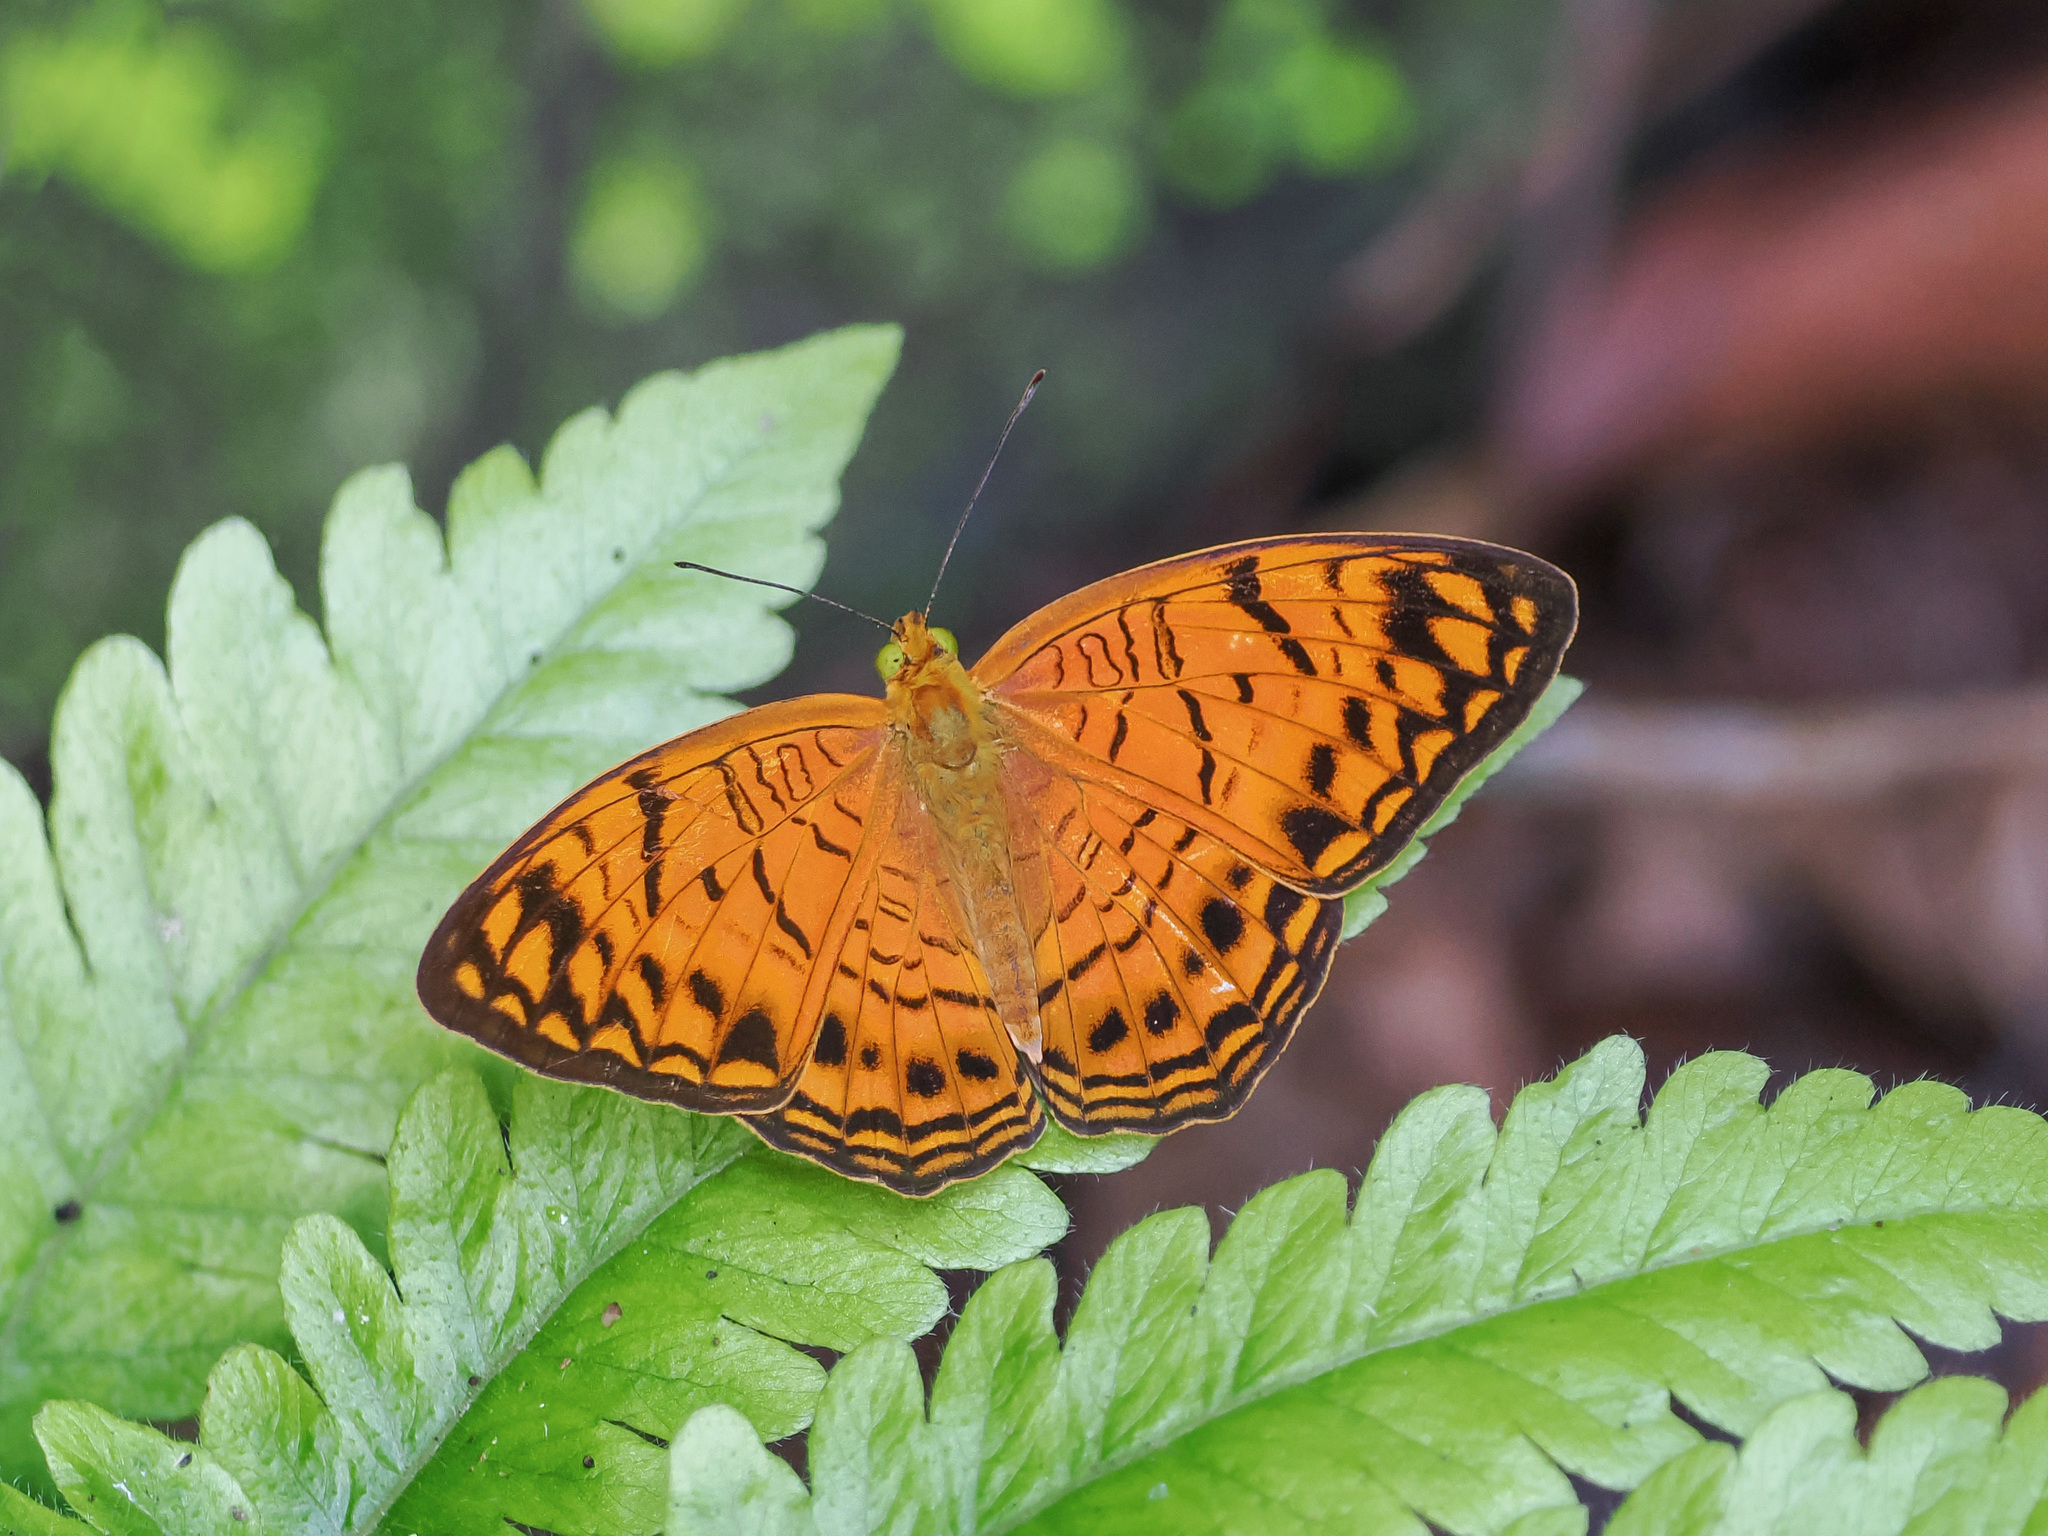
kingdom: Animalia
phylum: Arthropoda
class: Insecta
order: Lepidoptera
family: Nymphalidae
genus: Phalanta
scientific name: Phalanta alcippe
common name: Small leopard
